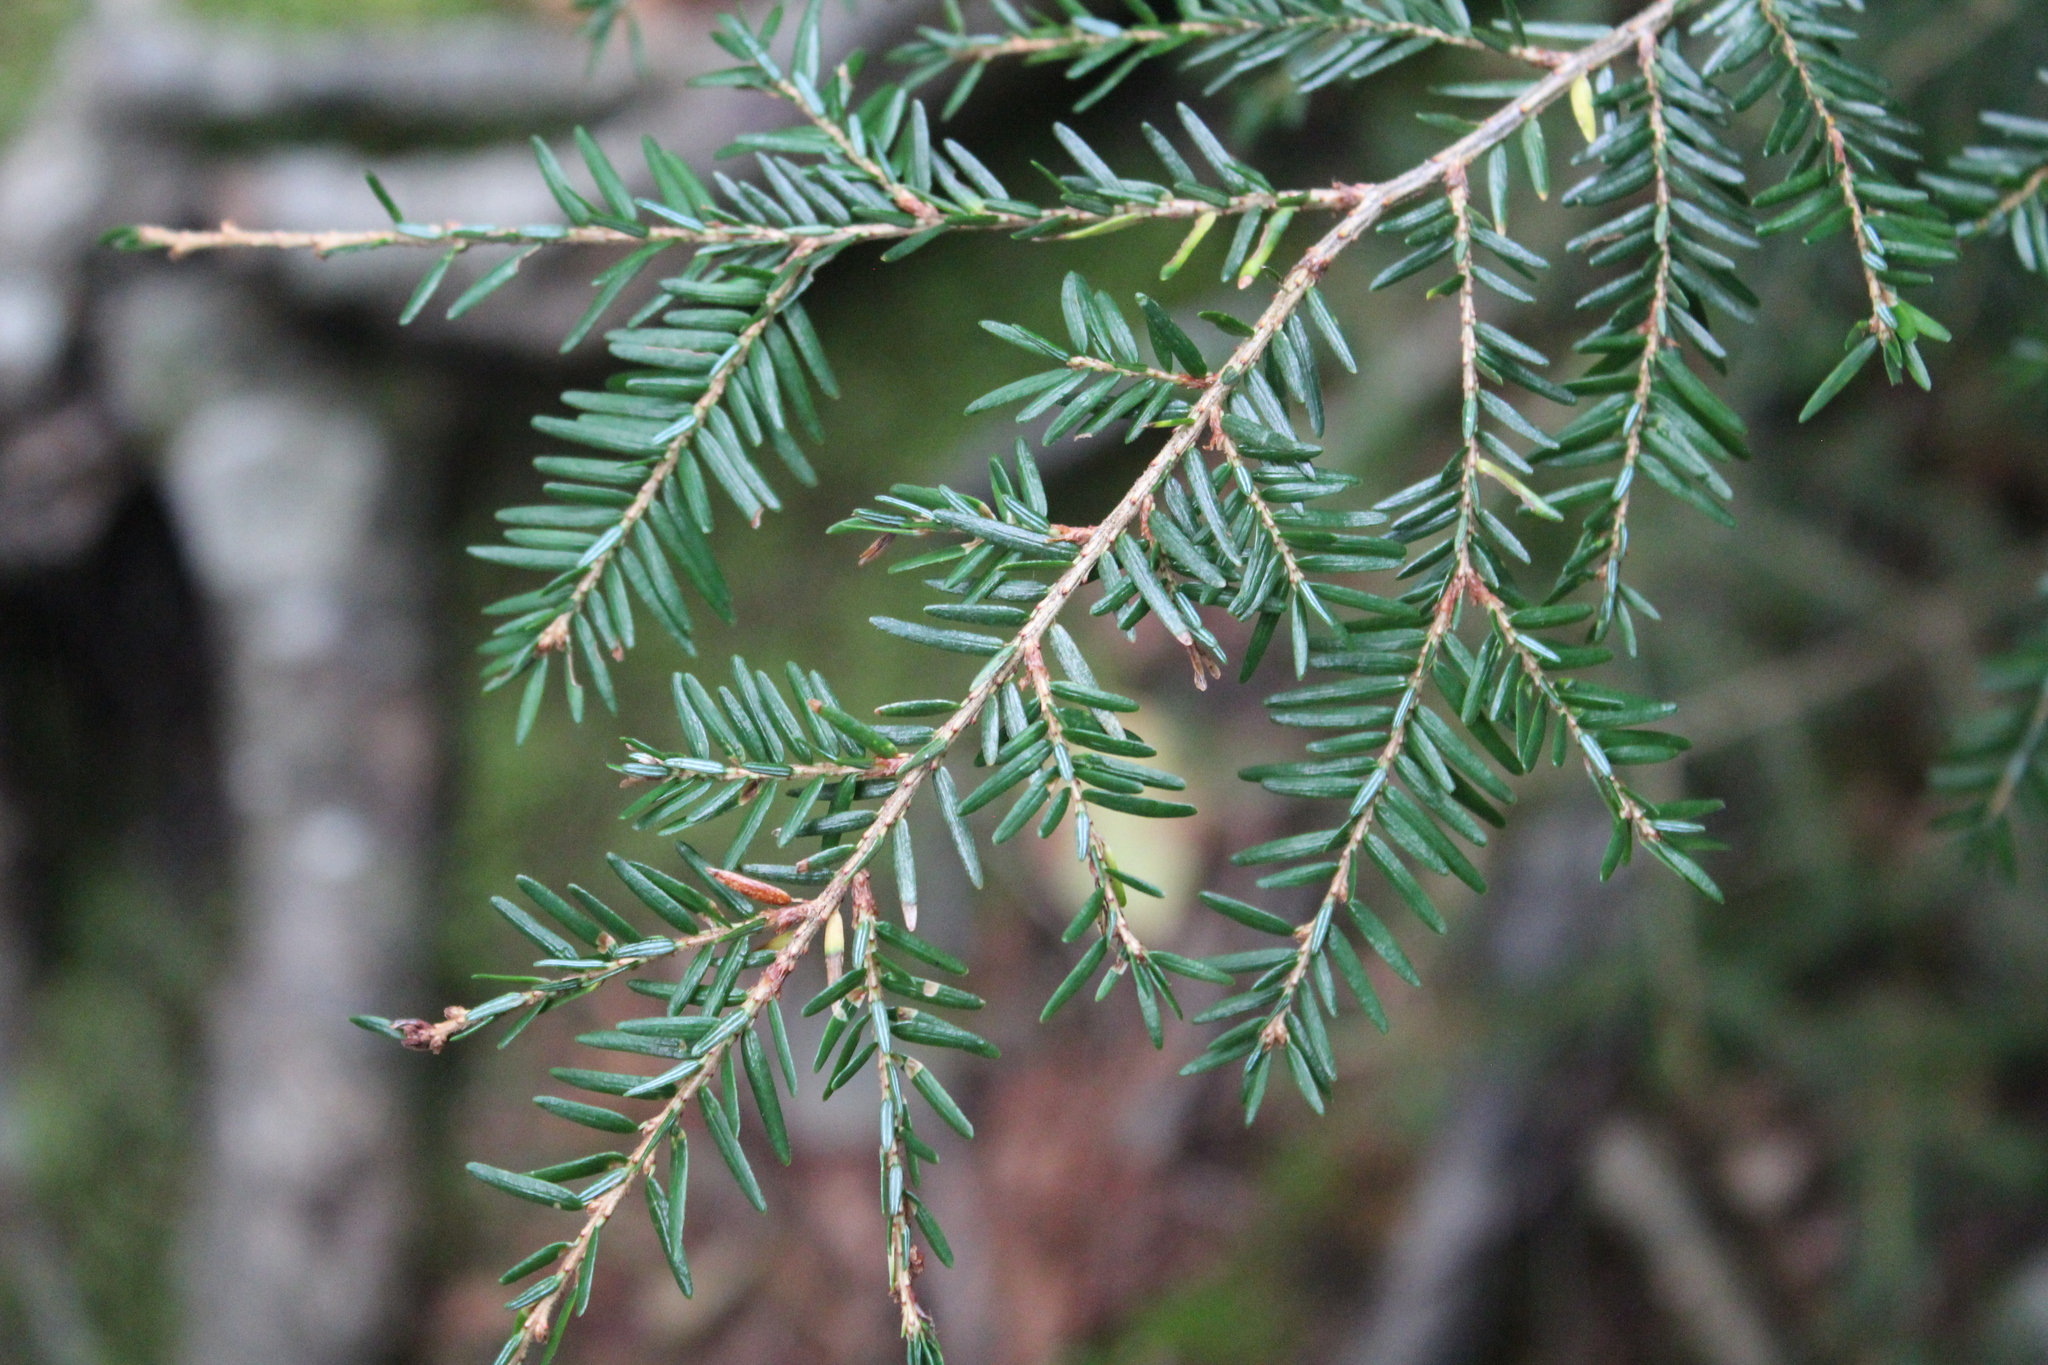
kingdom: Plantae
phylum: Tracheophyta
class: Pinopsida
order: Pinales
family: Pinaceae
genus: Tsuga
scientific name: Tsuga canadensis
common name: Eastern hemlock
